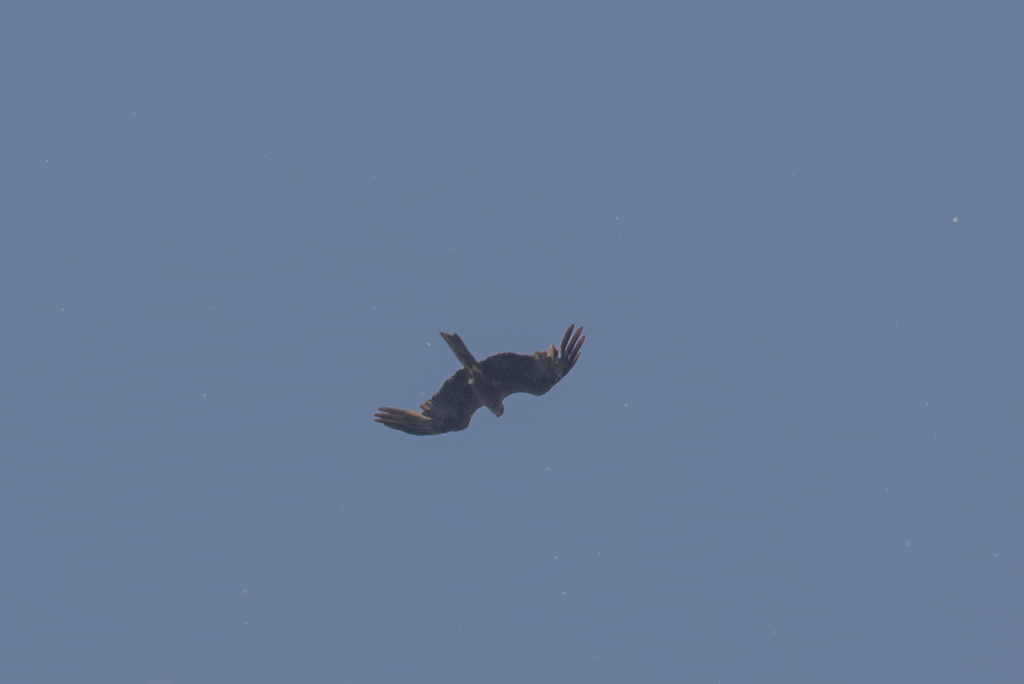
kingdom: Animalia
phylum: Chordata
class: Aves
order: Accipitriformes
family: Accipitridae
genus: Milvus
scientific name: Milvus migrans
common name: Black kite
